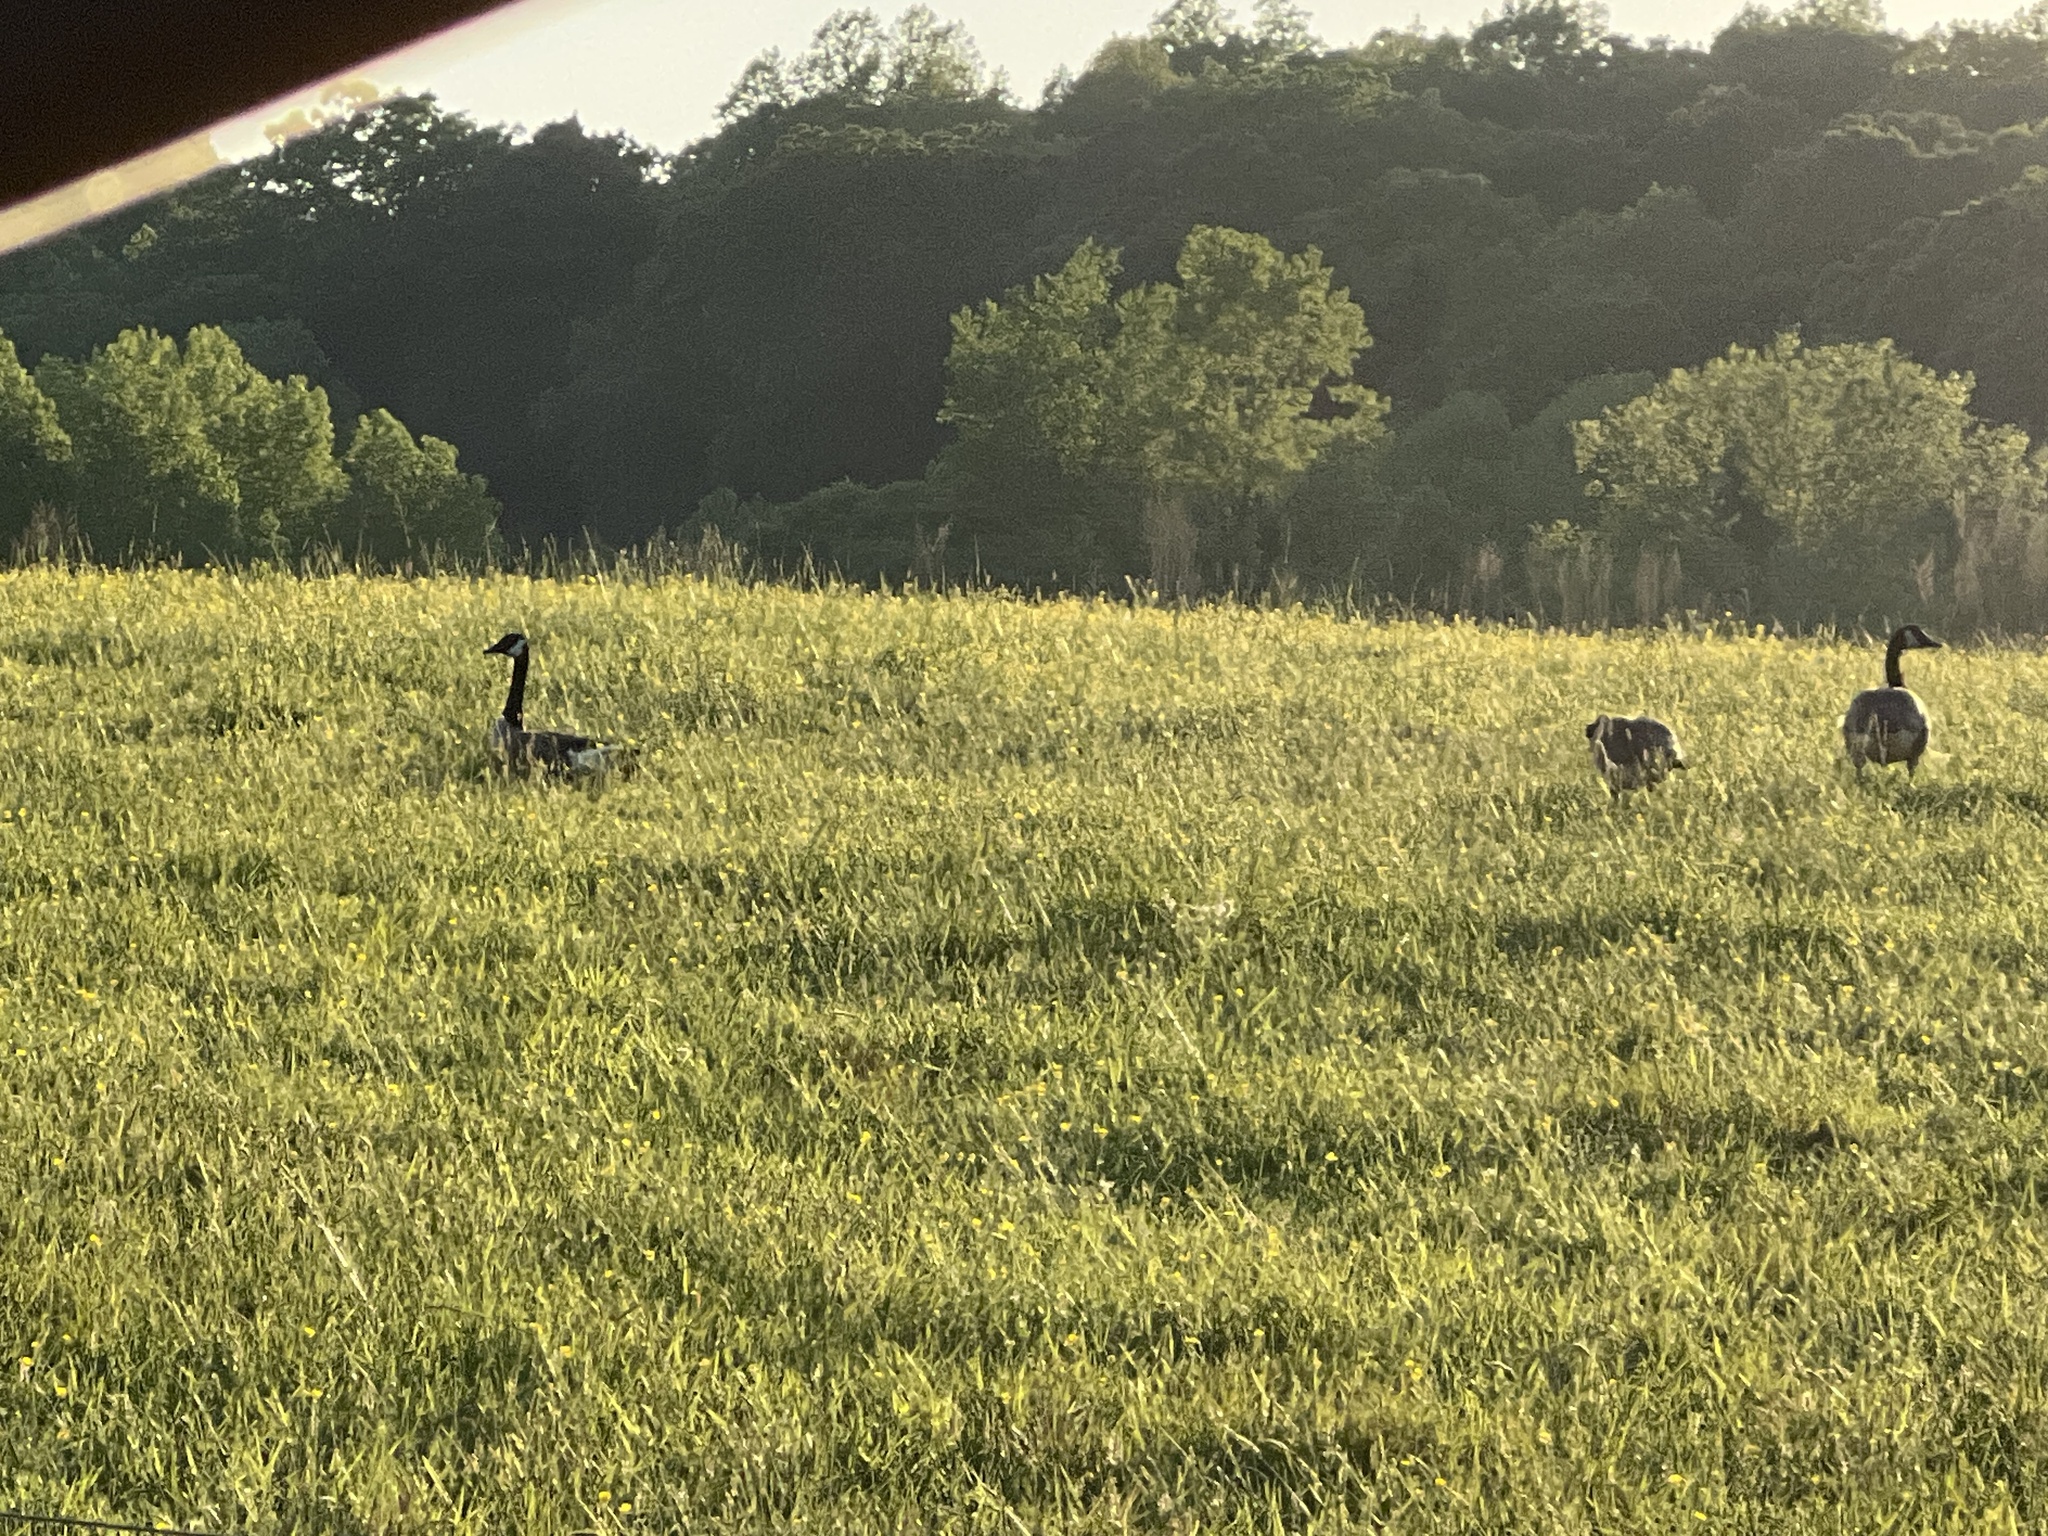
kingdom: Animalia
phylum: Chordata
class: Aves
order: Anseriformes
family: Anatidae
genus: Branta
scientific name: Branta canadensis
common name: Canada goose
